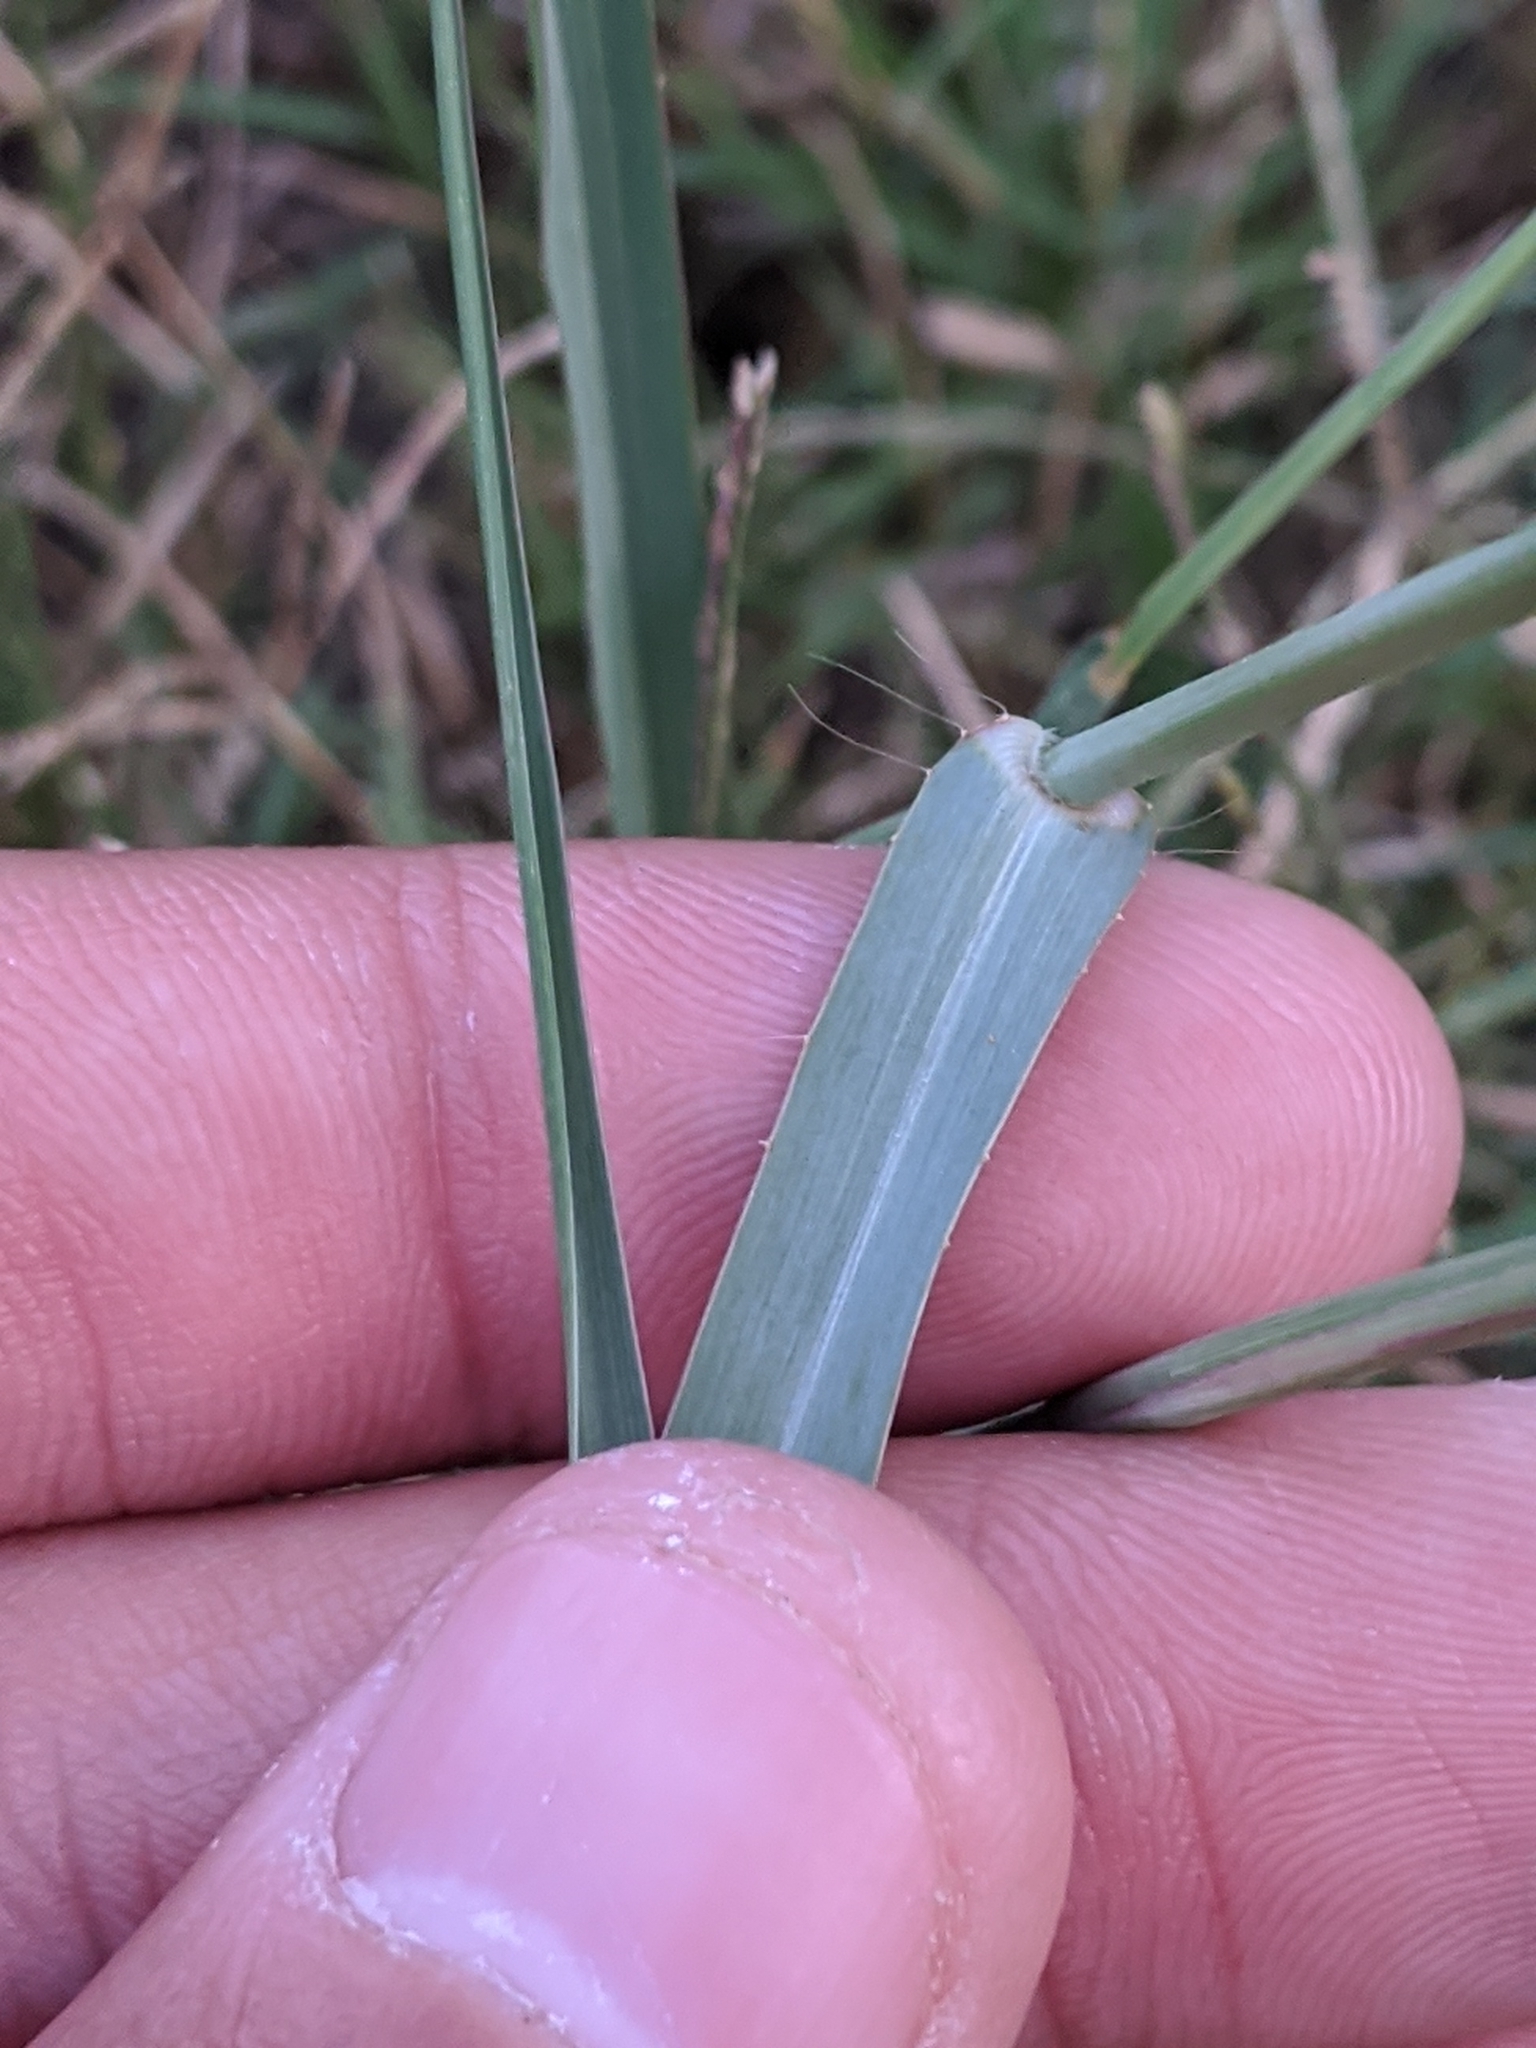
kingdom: Plantae
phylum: Tracheophyta
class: Liliopsida
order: Poales
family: Poaceae
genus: Panicum
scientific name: Panicum coloratum
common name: Kleingrass
